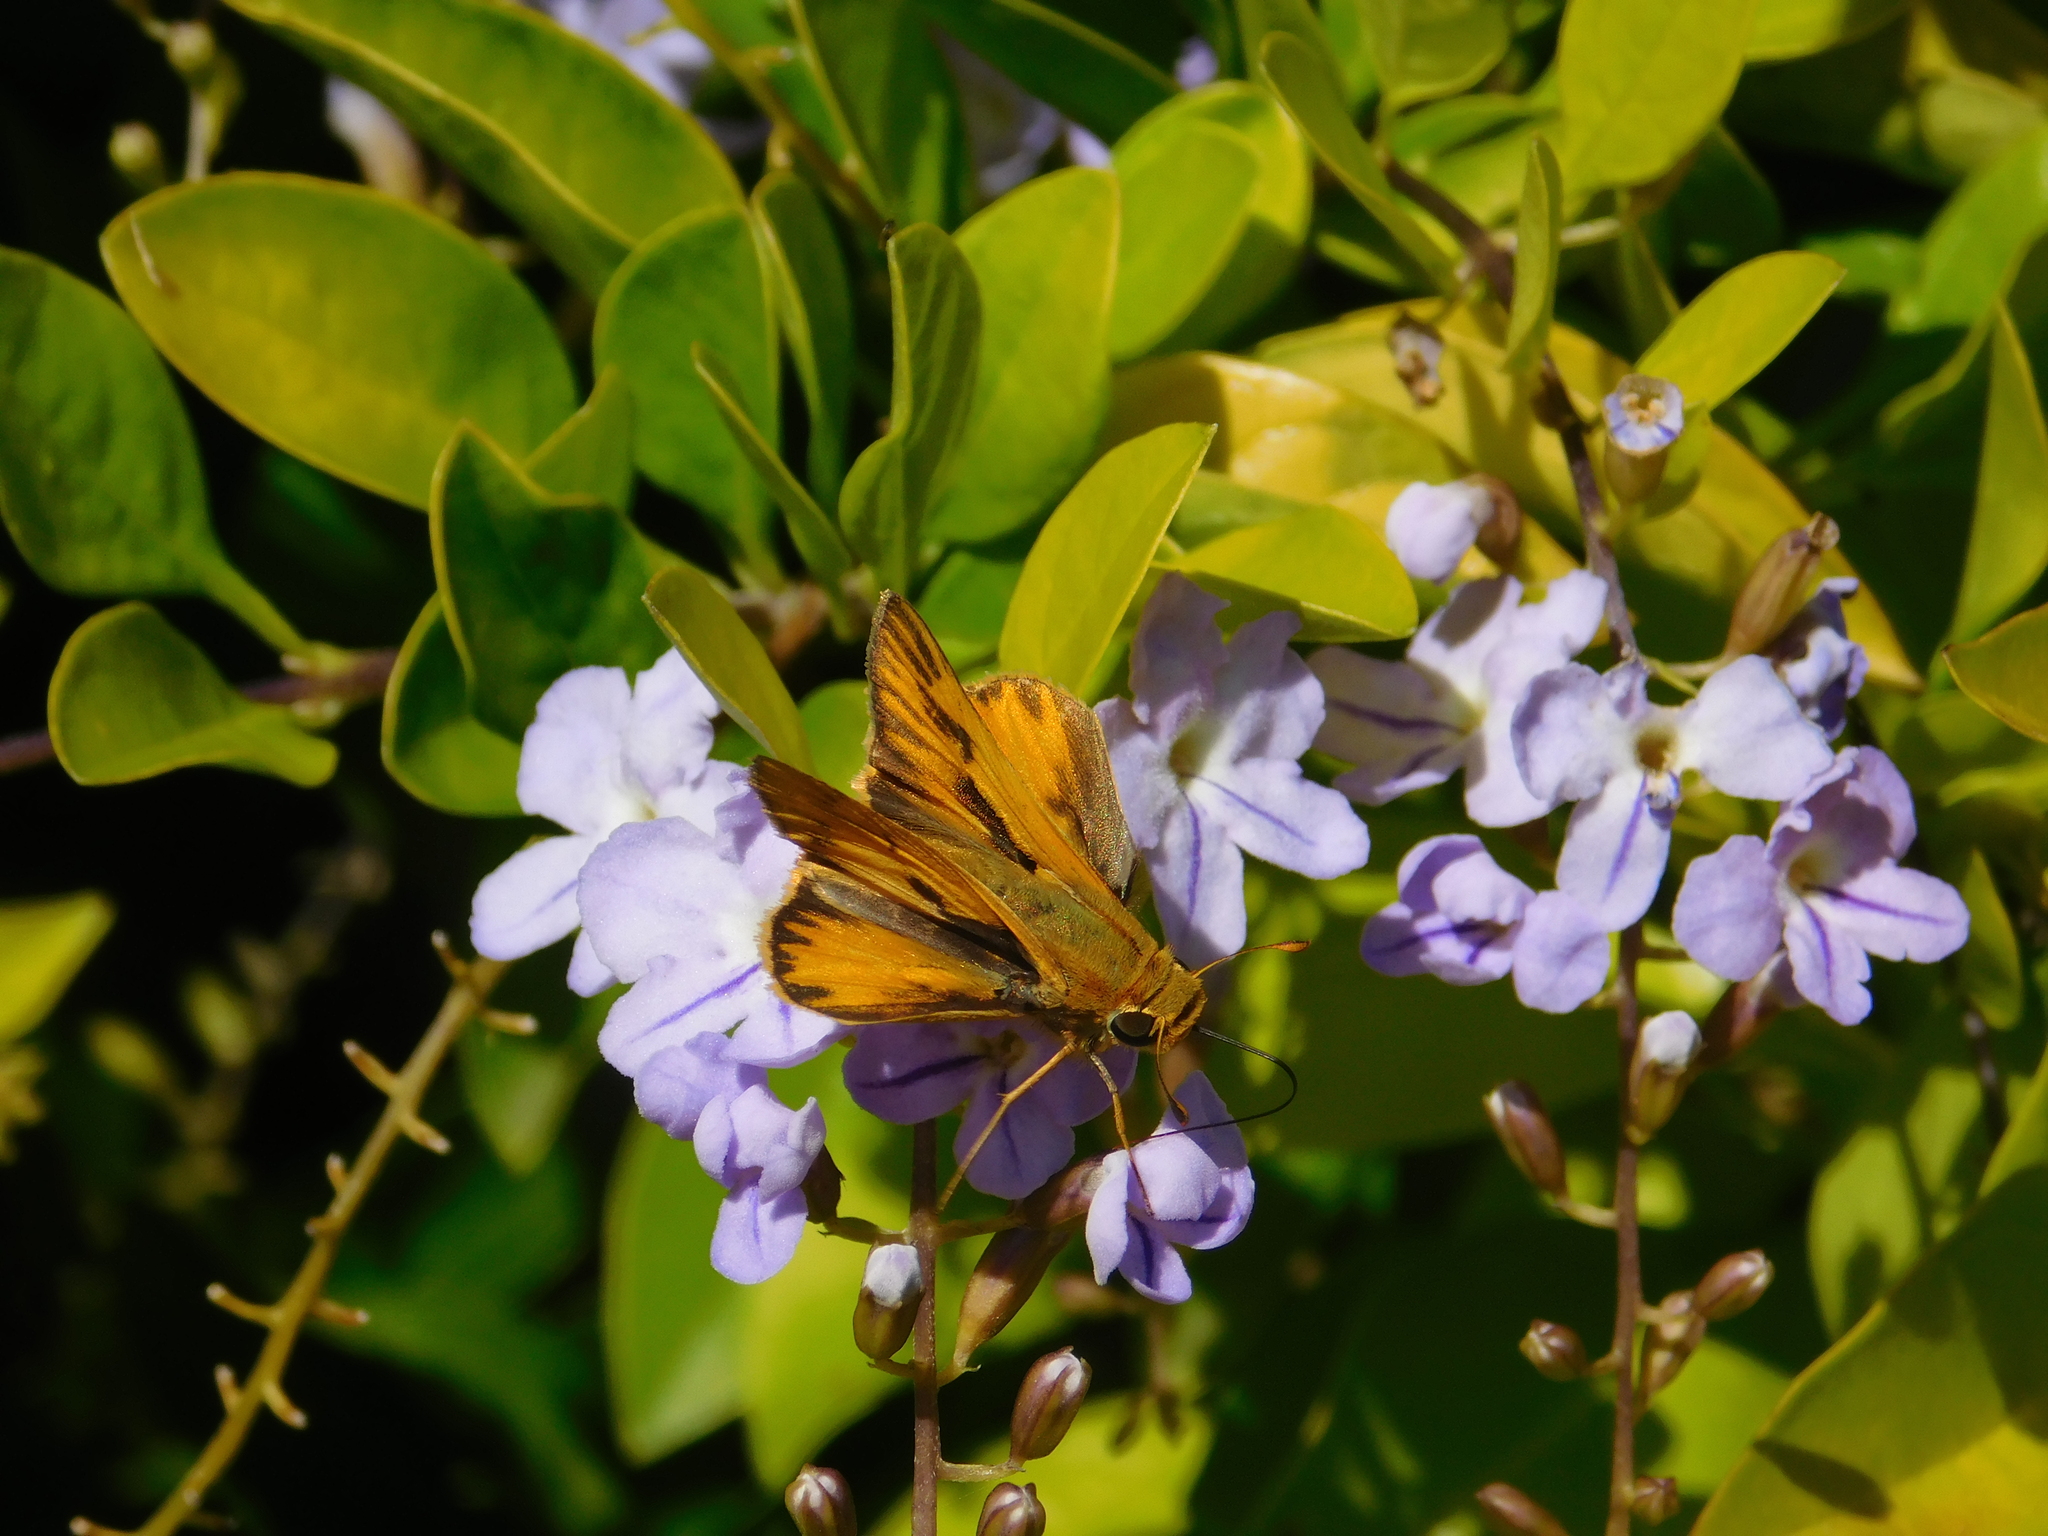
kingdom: Animalia
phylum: Arthropoda
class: Insecta
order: Lepidoptera
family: Hesperiidae
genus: Hylephila
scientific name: Hylephila phyleus
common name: Fiery skipper
